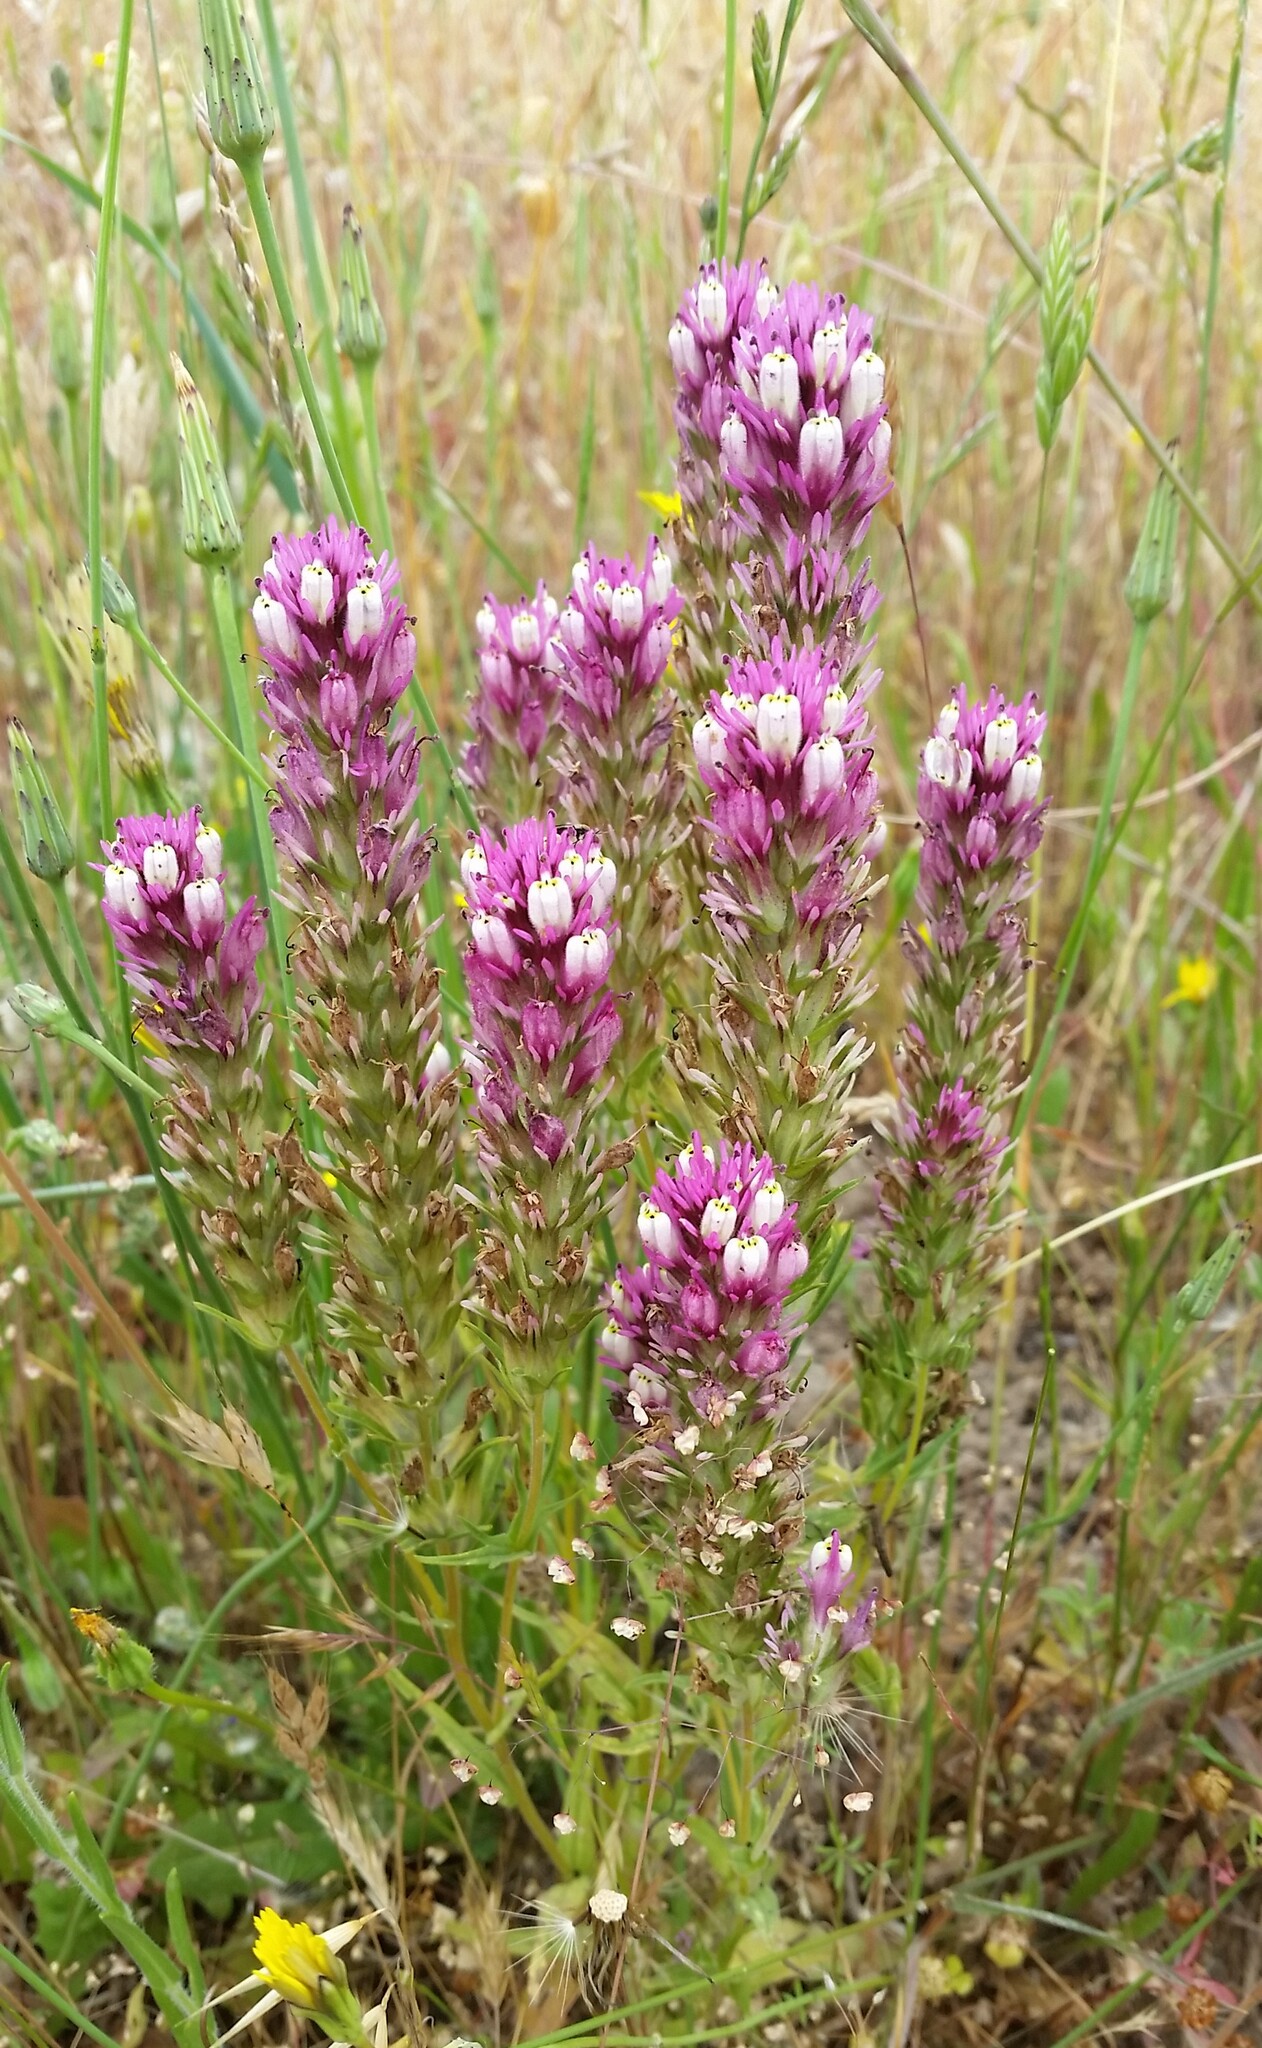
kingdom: Plantae
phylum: Tracheophyta
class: Magnoliopsida
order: Lamiales
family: Orobanchaceae
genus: Castilleja
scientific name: Castilleja densiflora
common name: Dense-flower indian paintbrush
